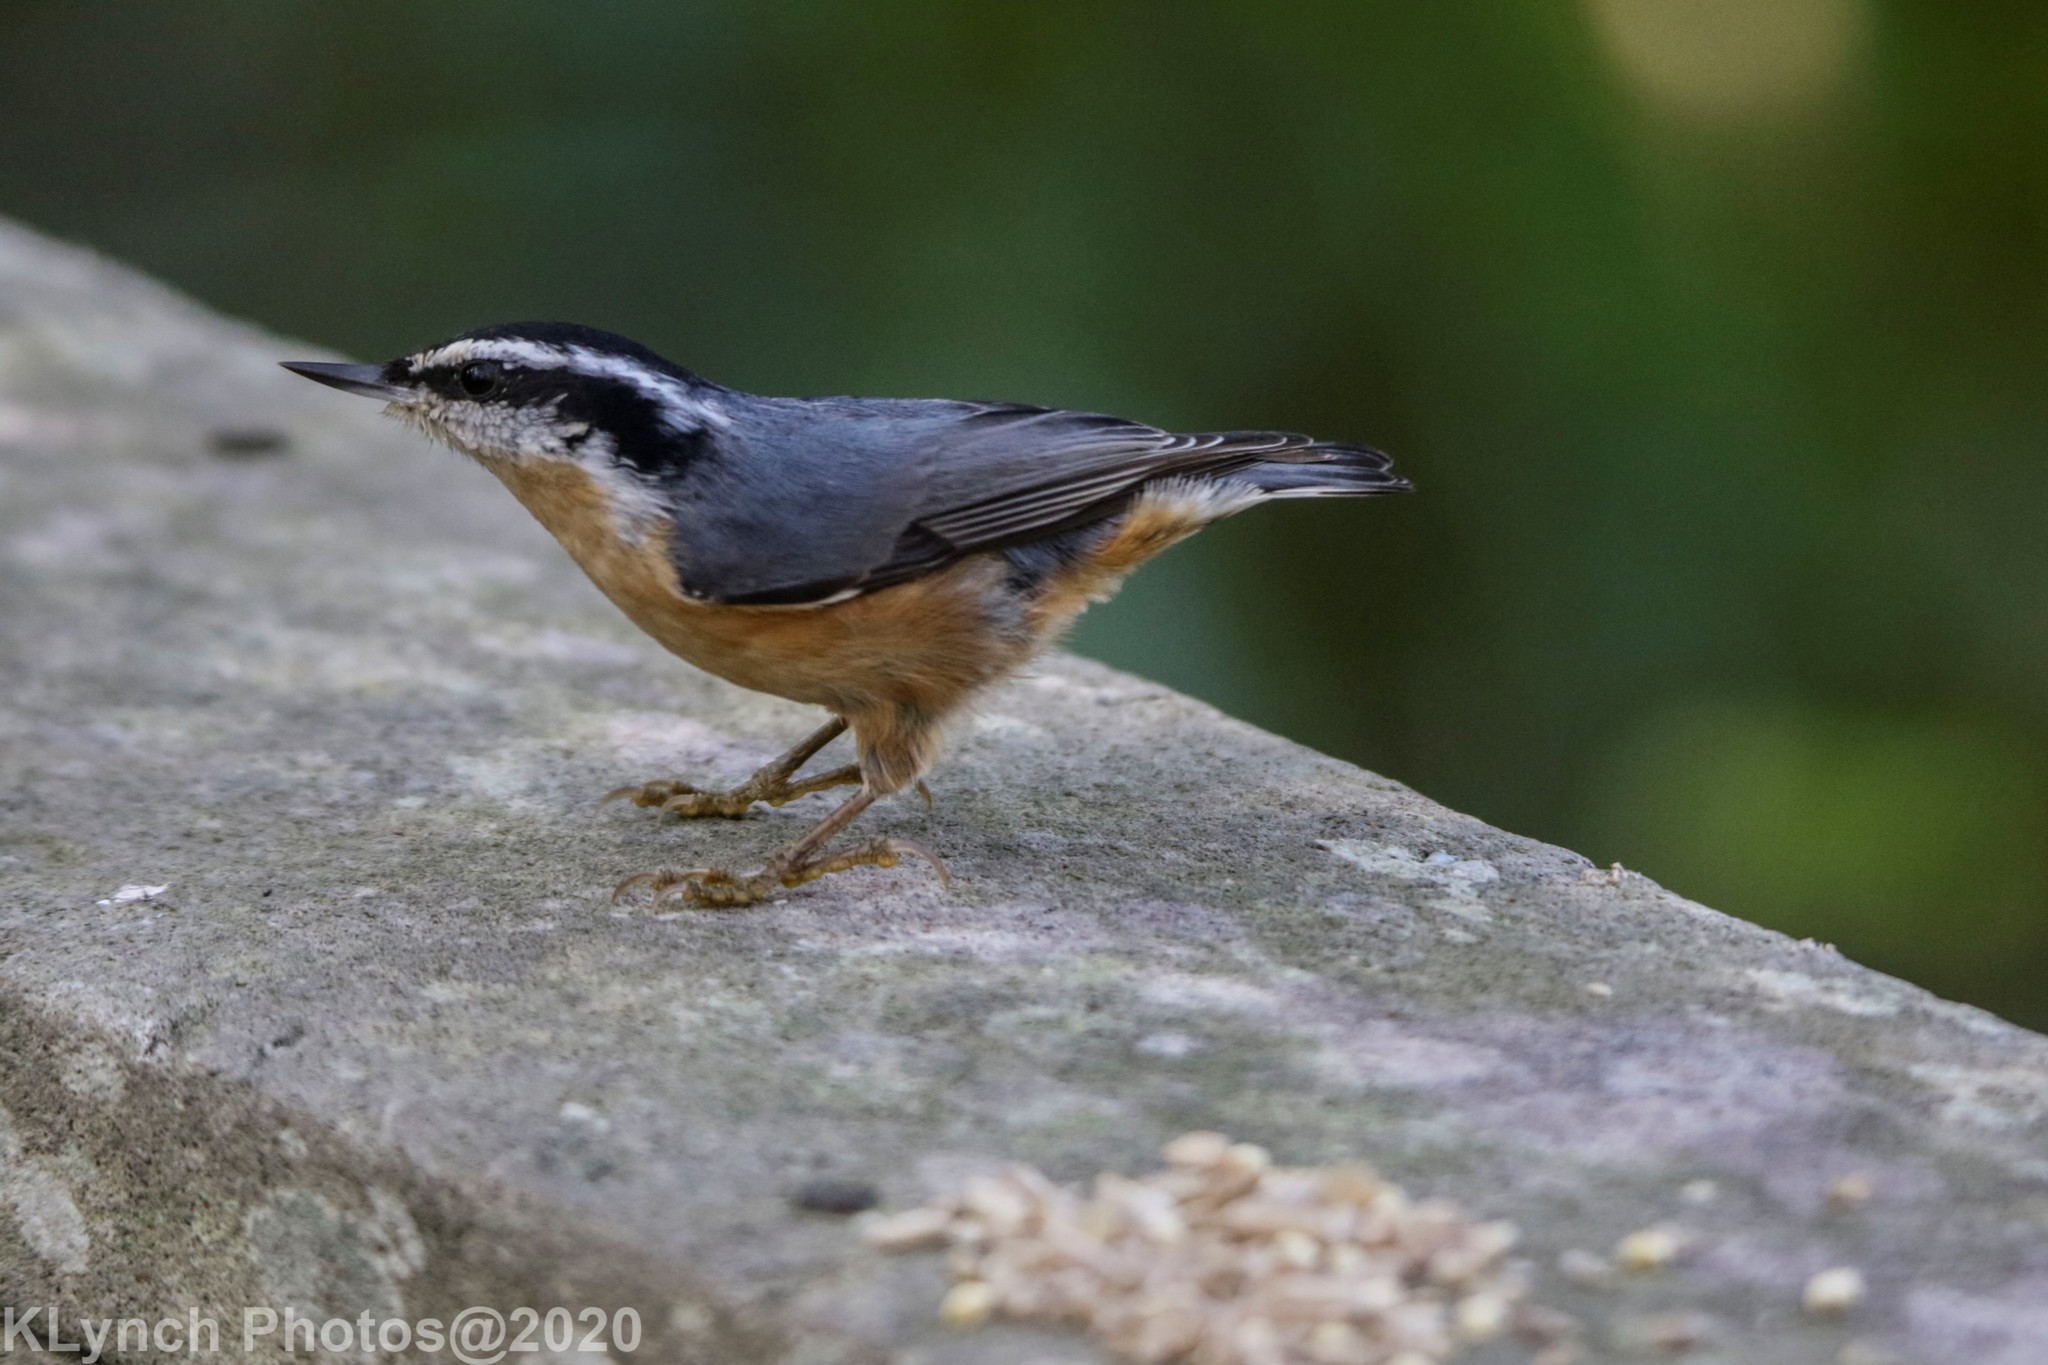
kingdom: Animalia
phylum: Chordata
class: Aves
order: Passeriformes
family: Sittidae
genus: Sitta
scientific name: Sitta canadensis
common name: Red-breasted nuthatch
